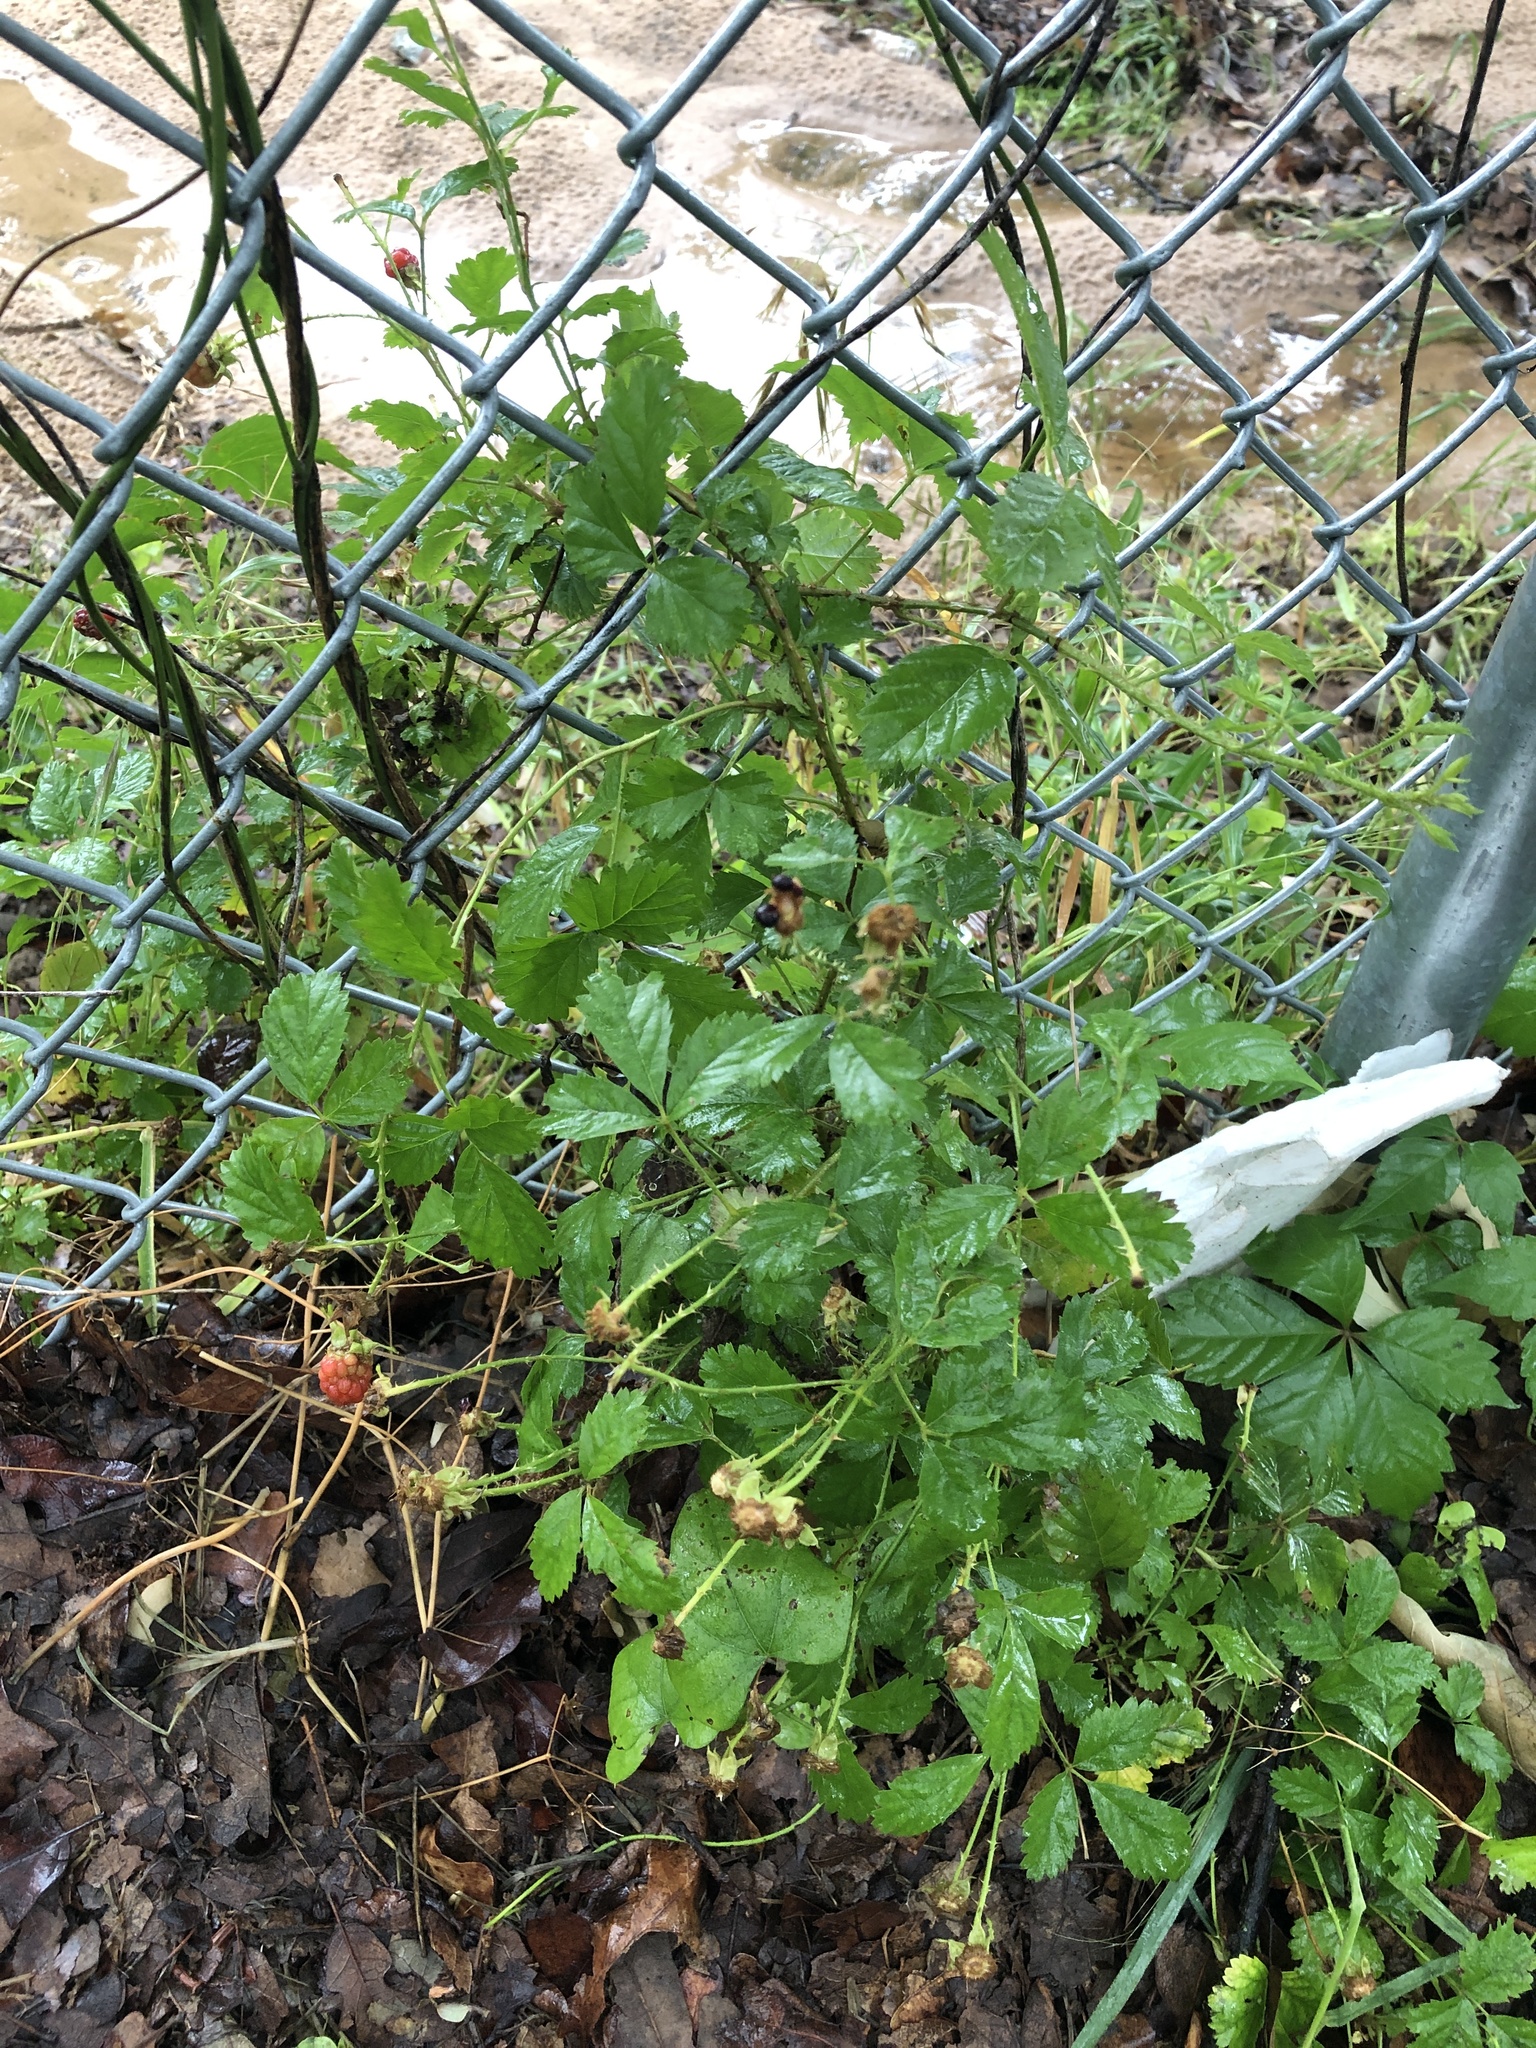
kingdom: Plantae
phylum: Tracheophyta
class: Magnoliopsida
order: Rosales
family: Rosaceae
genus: Rubus
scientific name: Rubus trivialis
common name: Southern dewberry
